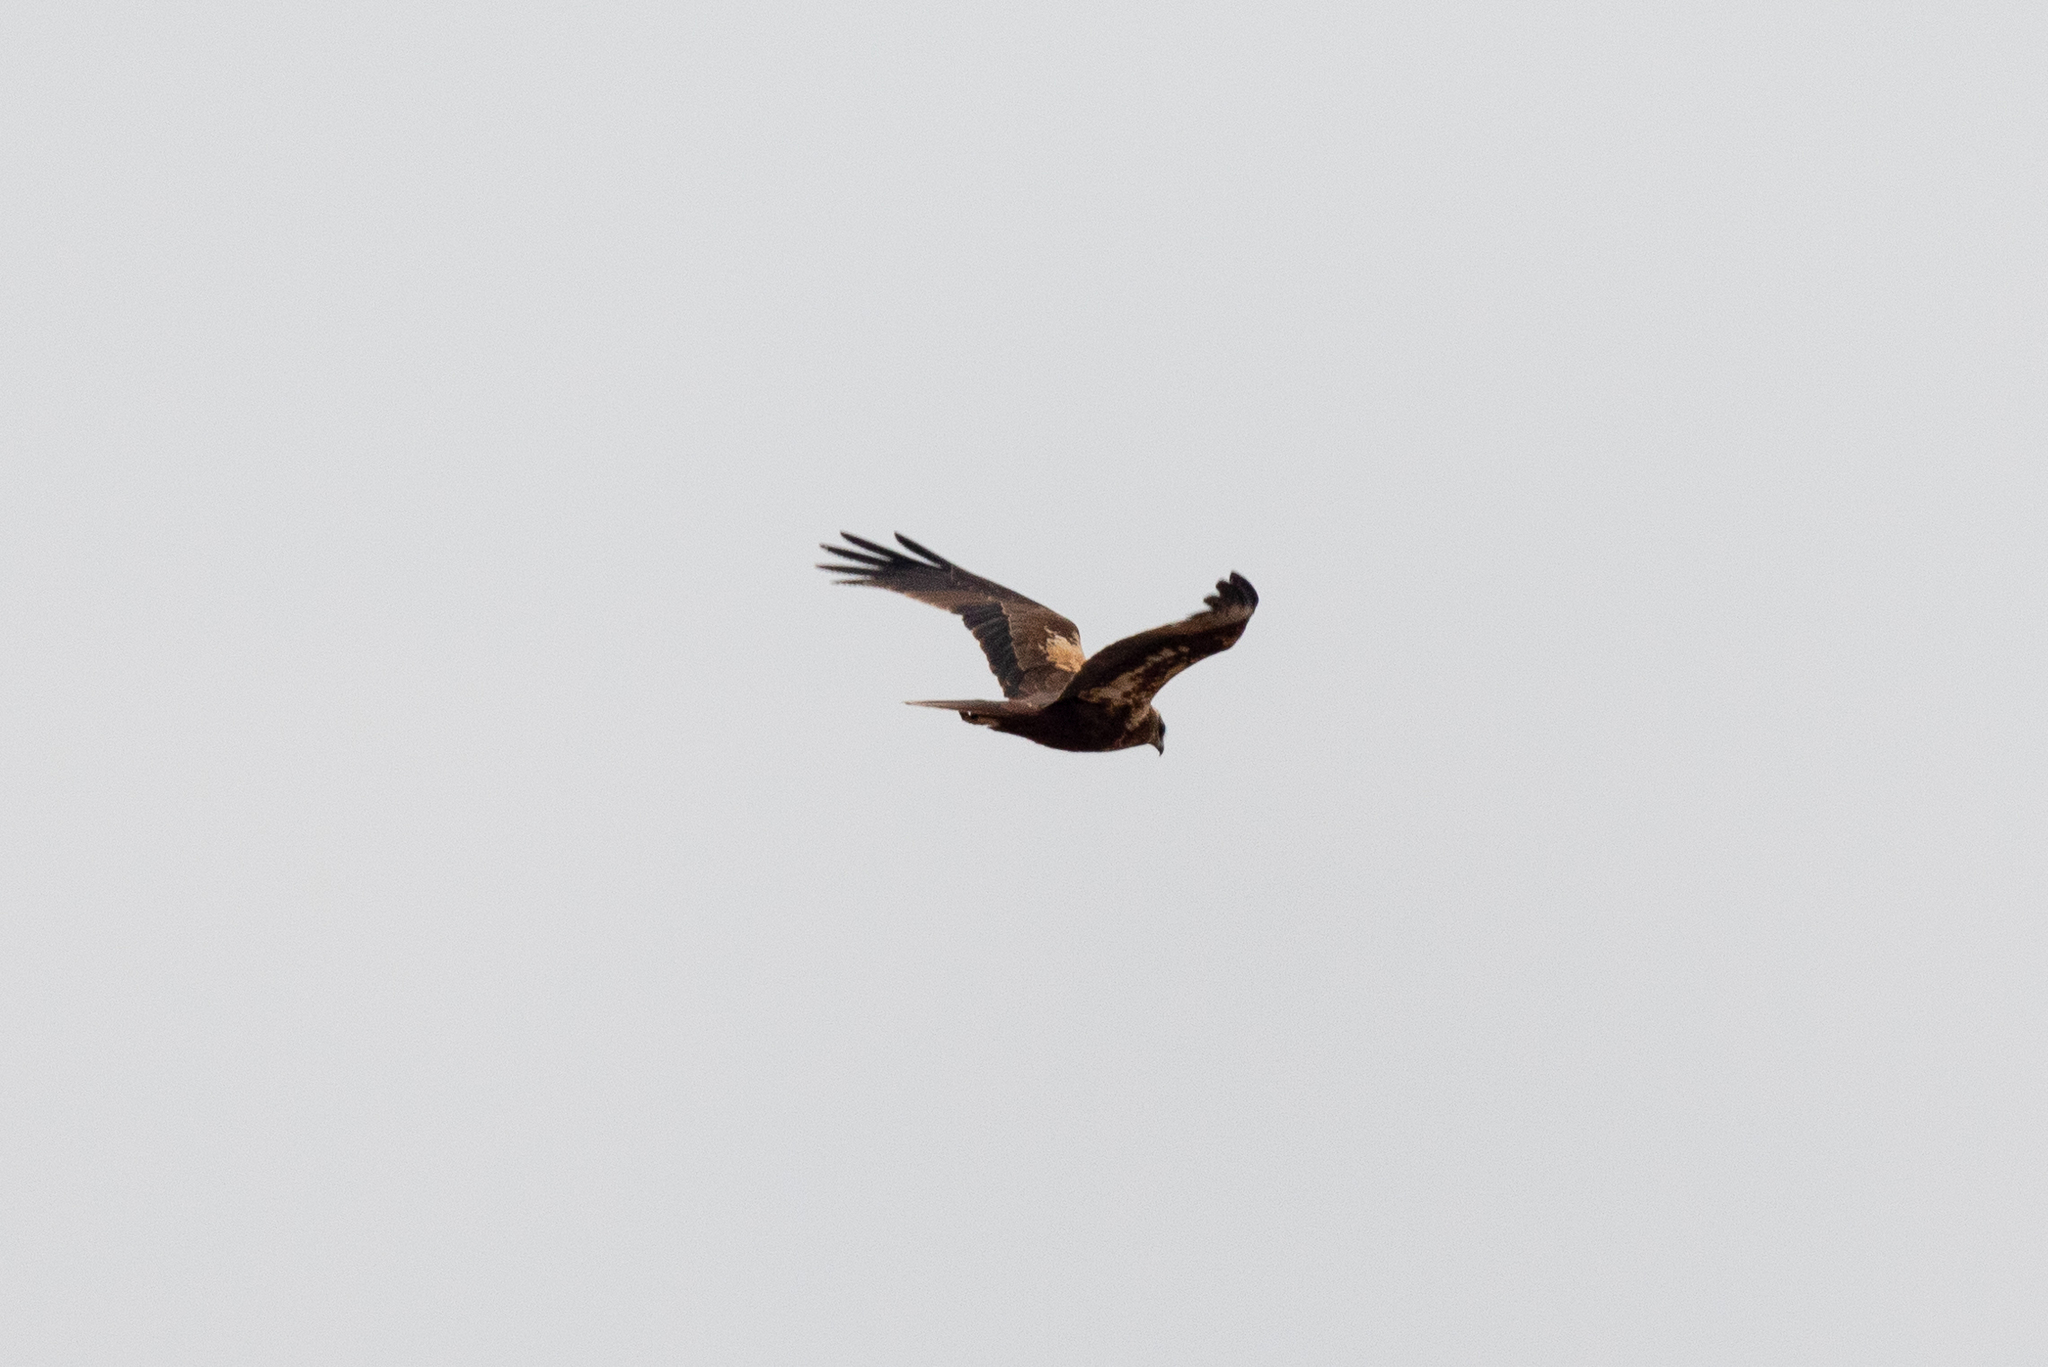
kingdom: Animalia
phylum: Chordata
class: Aves
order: Accipitriformes
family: Accipitridae
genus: Circus
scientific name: Circus aeruginosus
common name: Western marsh harrier
